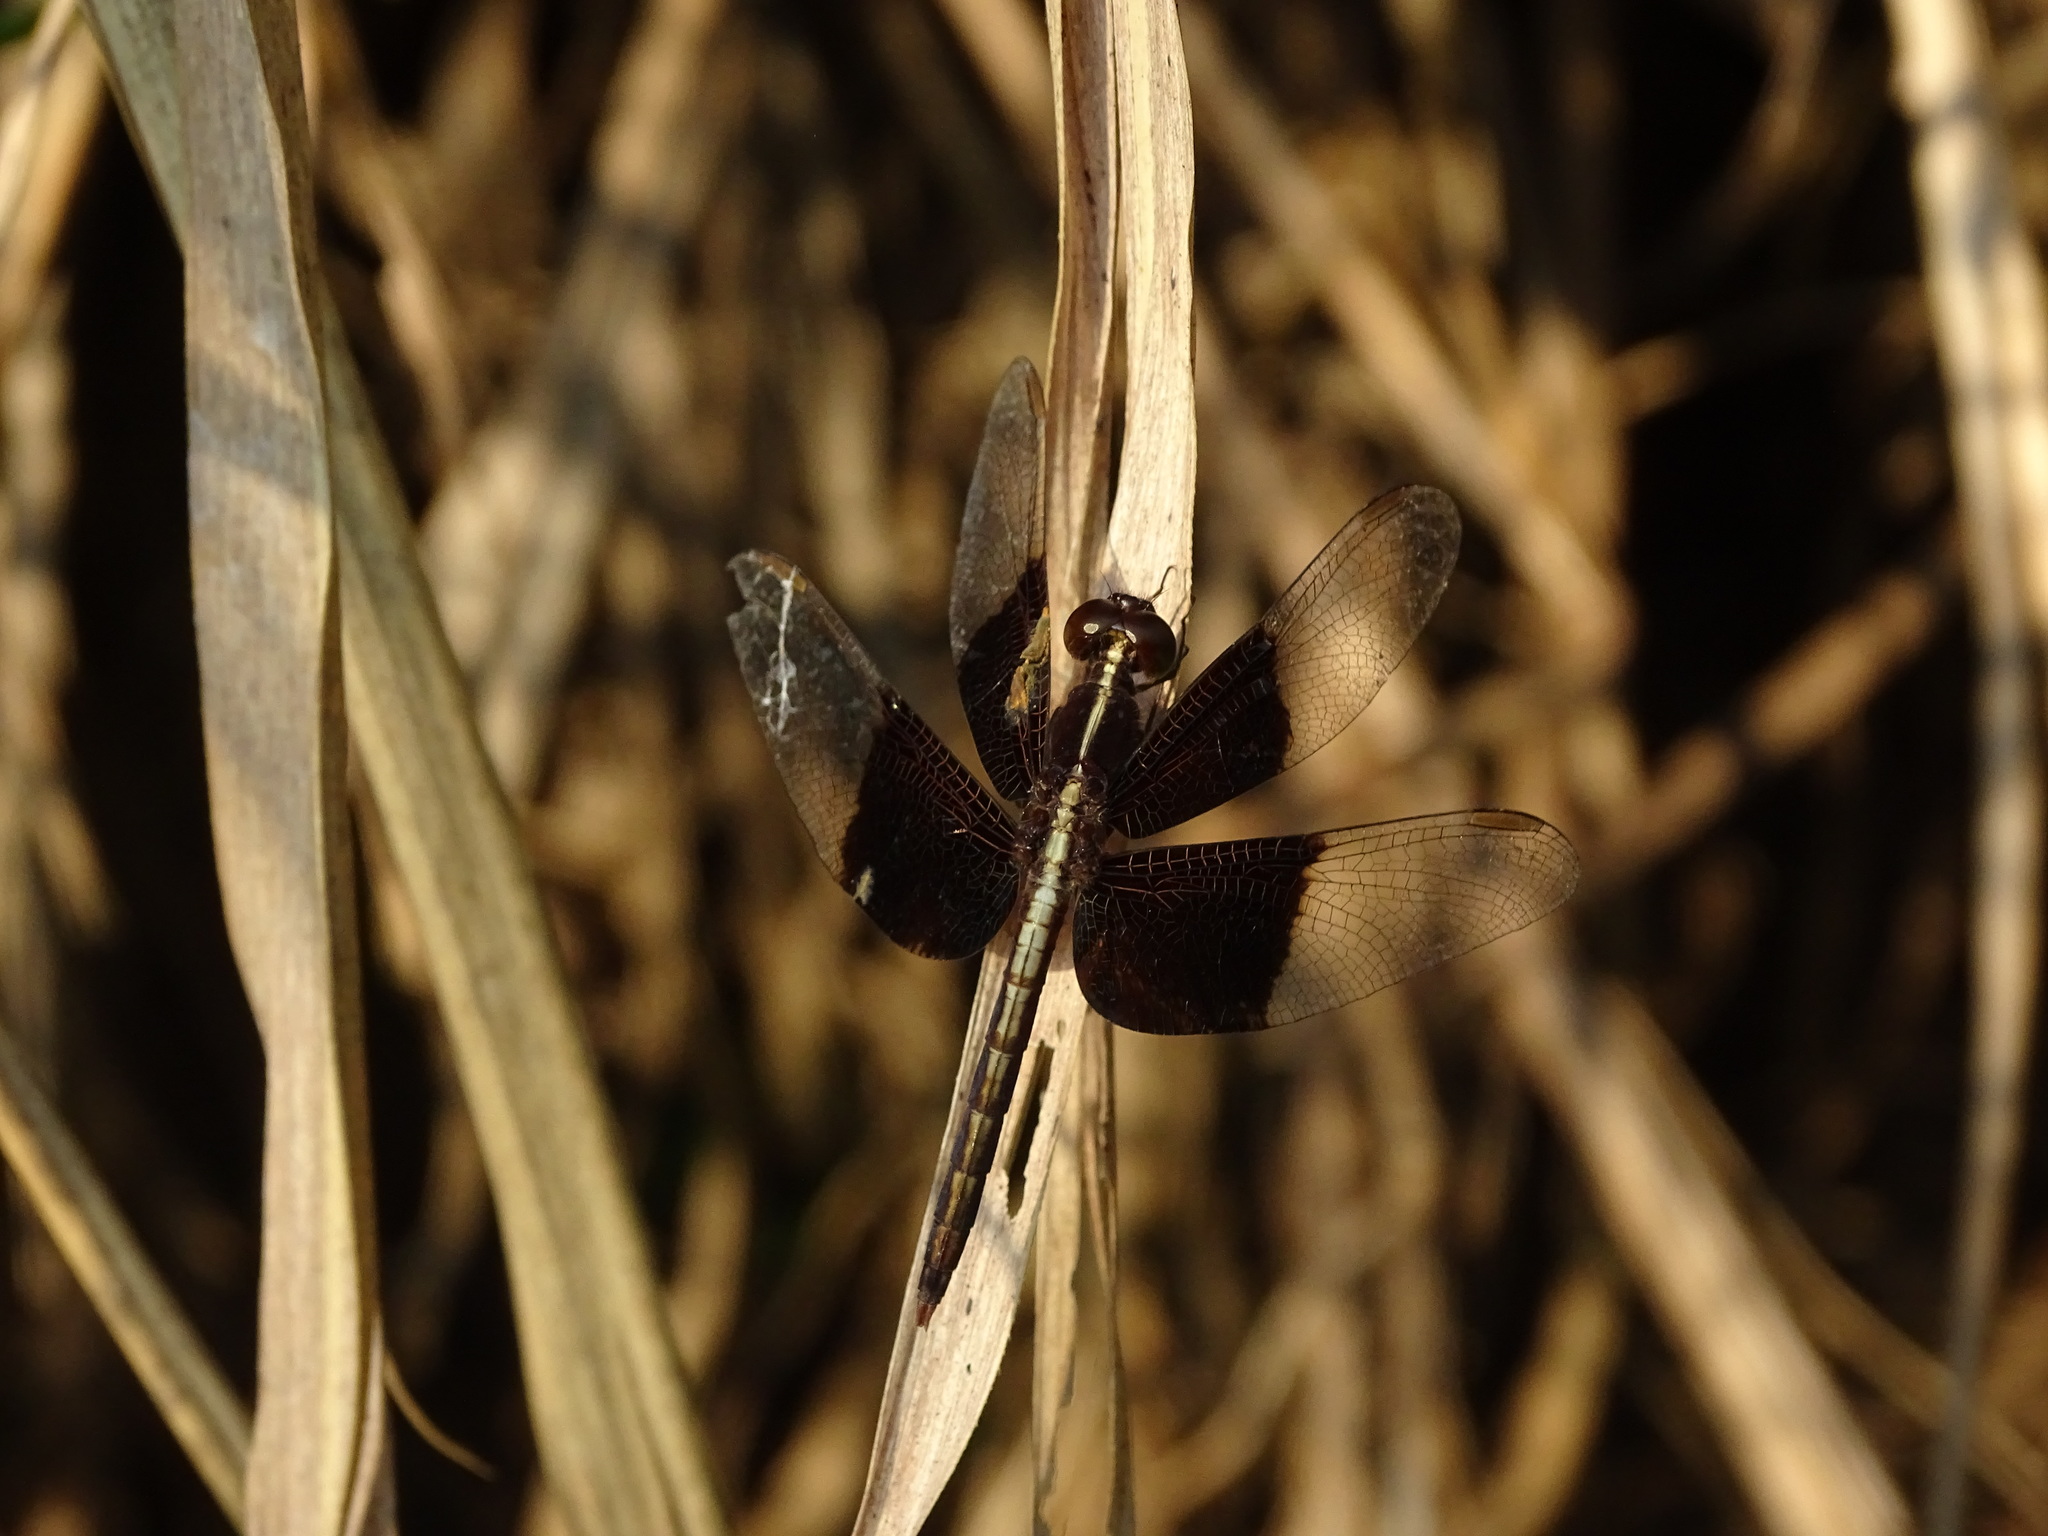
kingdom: Animalia
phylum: Arthropoda
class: Insecta
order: Odonata
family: Libellulidae
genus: Neurothemis
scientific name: Neurothemis tullia
